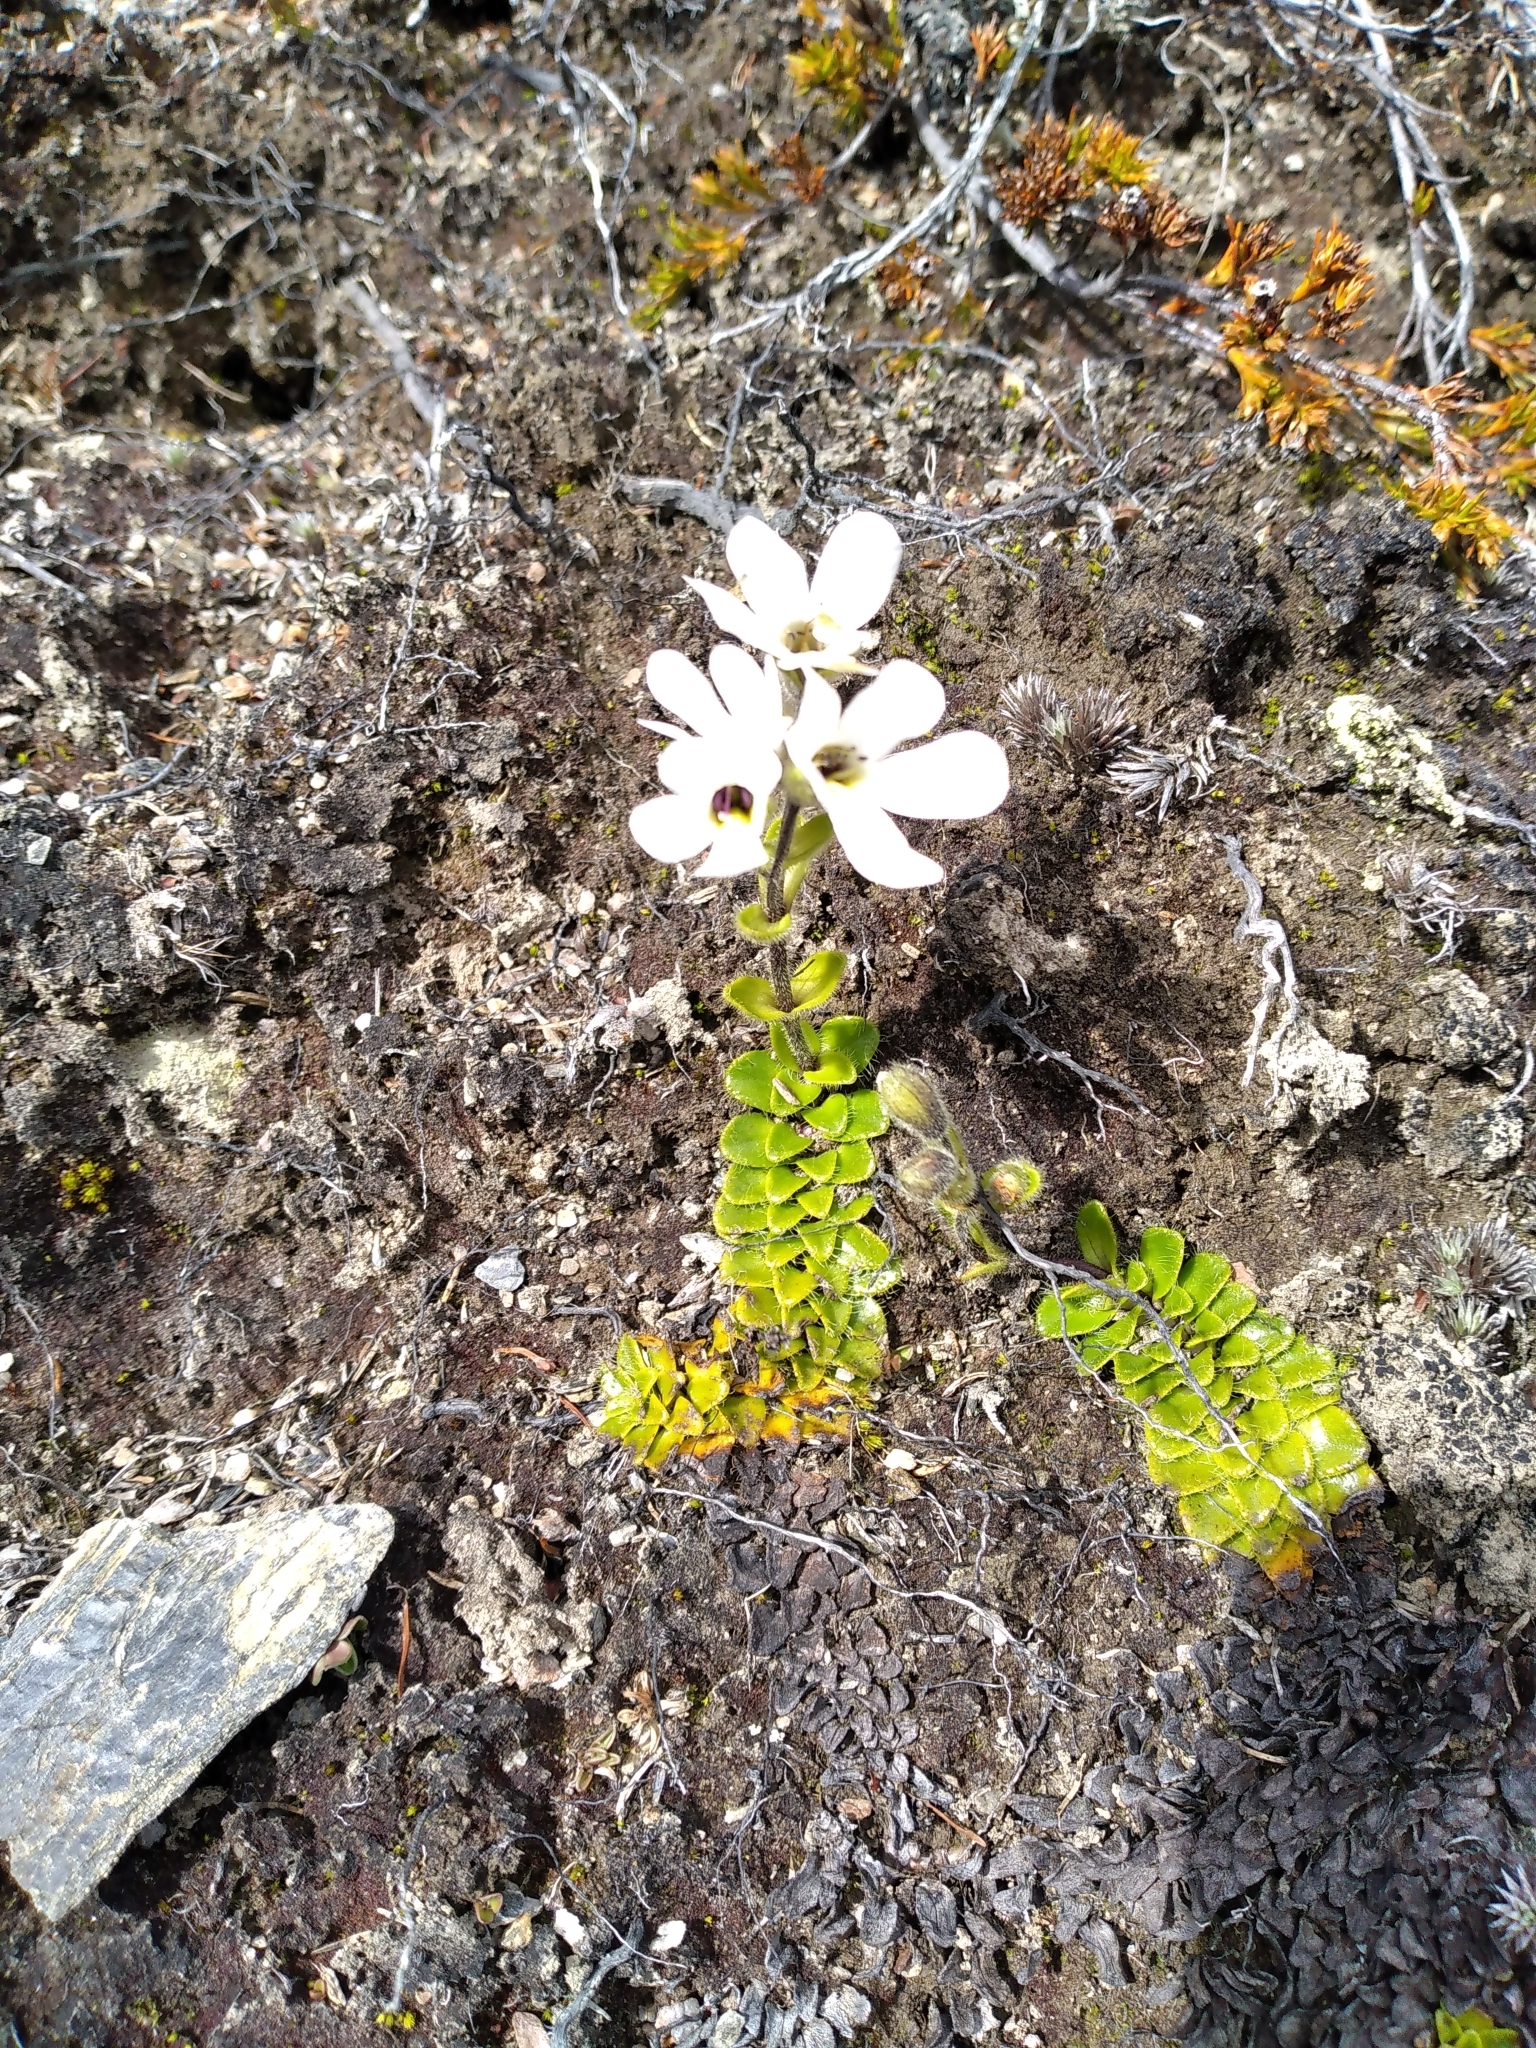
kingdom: Plantae
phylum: Tracheophyta
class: Magnoliopsida
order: Lamiales
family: Plantaginaceae
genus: Ourisia
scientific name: Ourisia glandulosa
